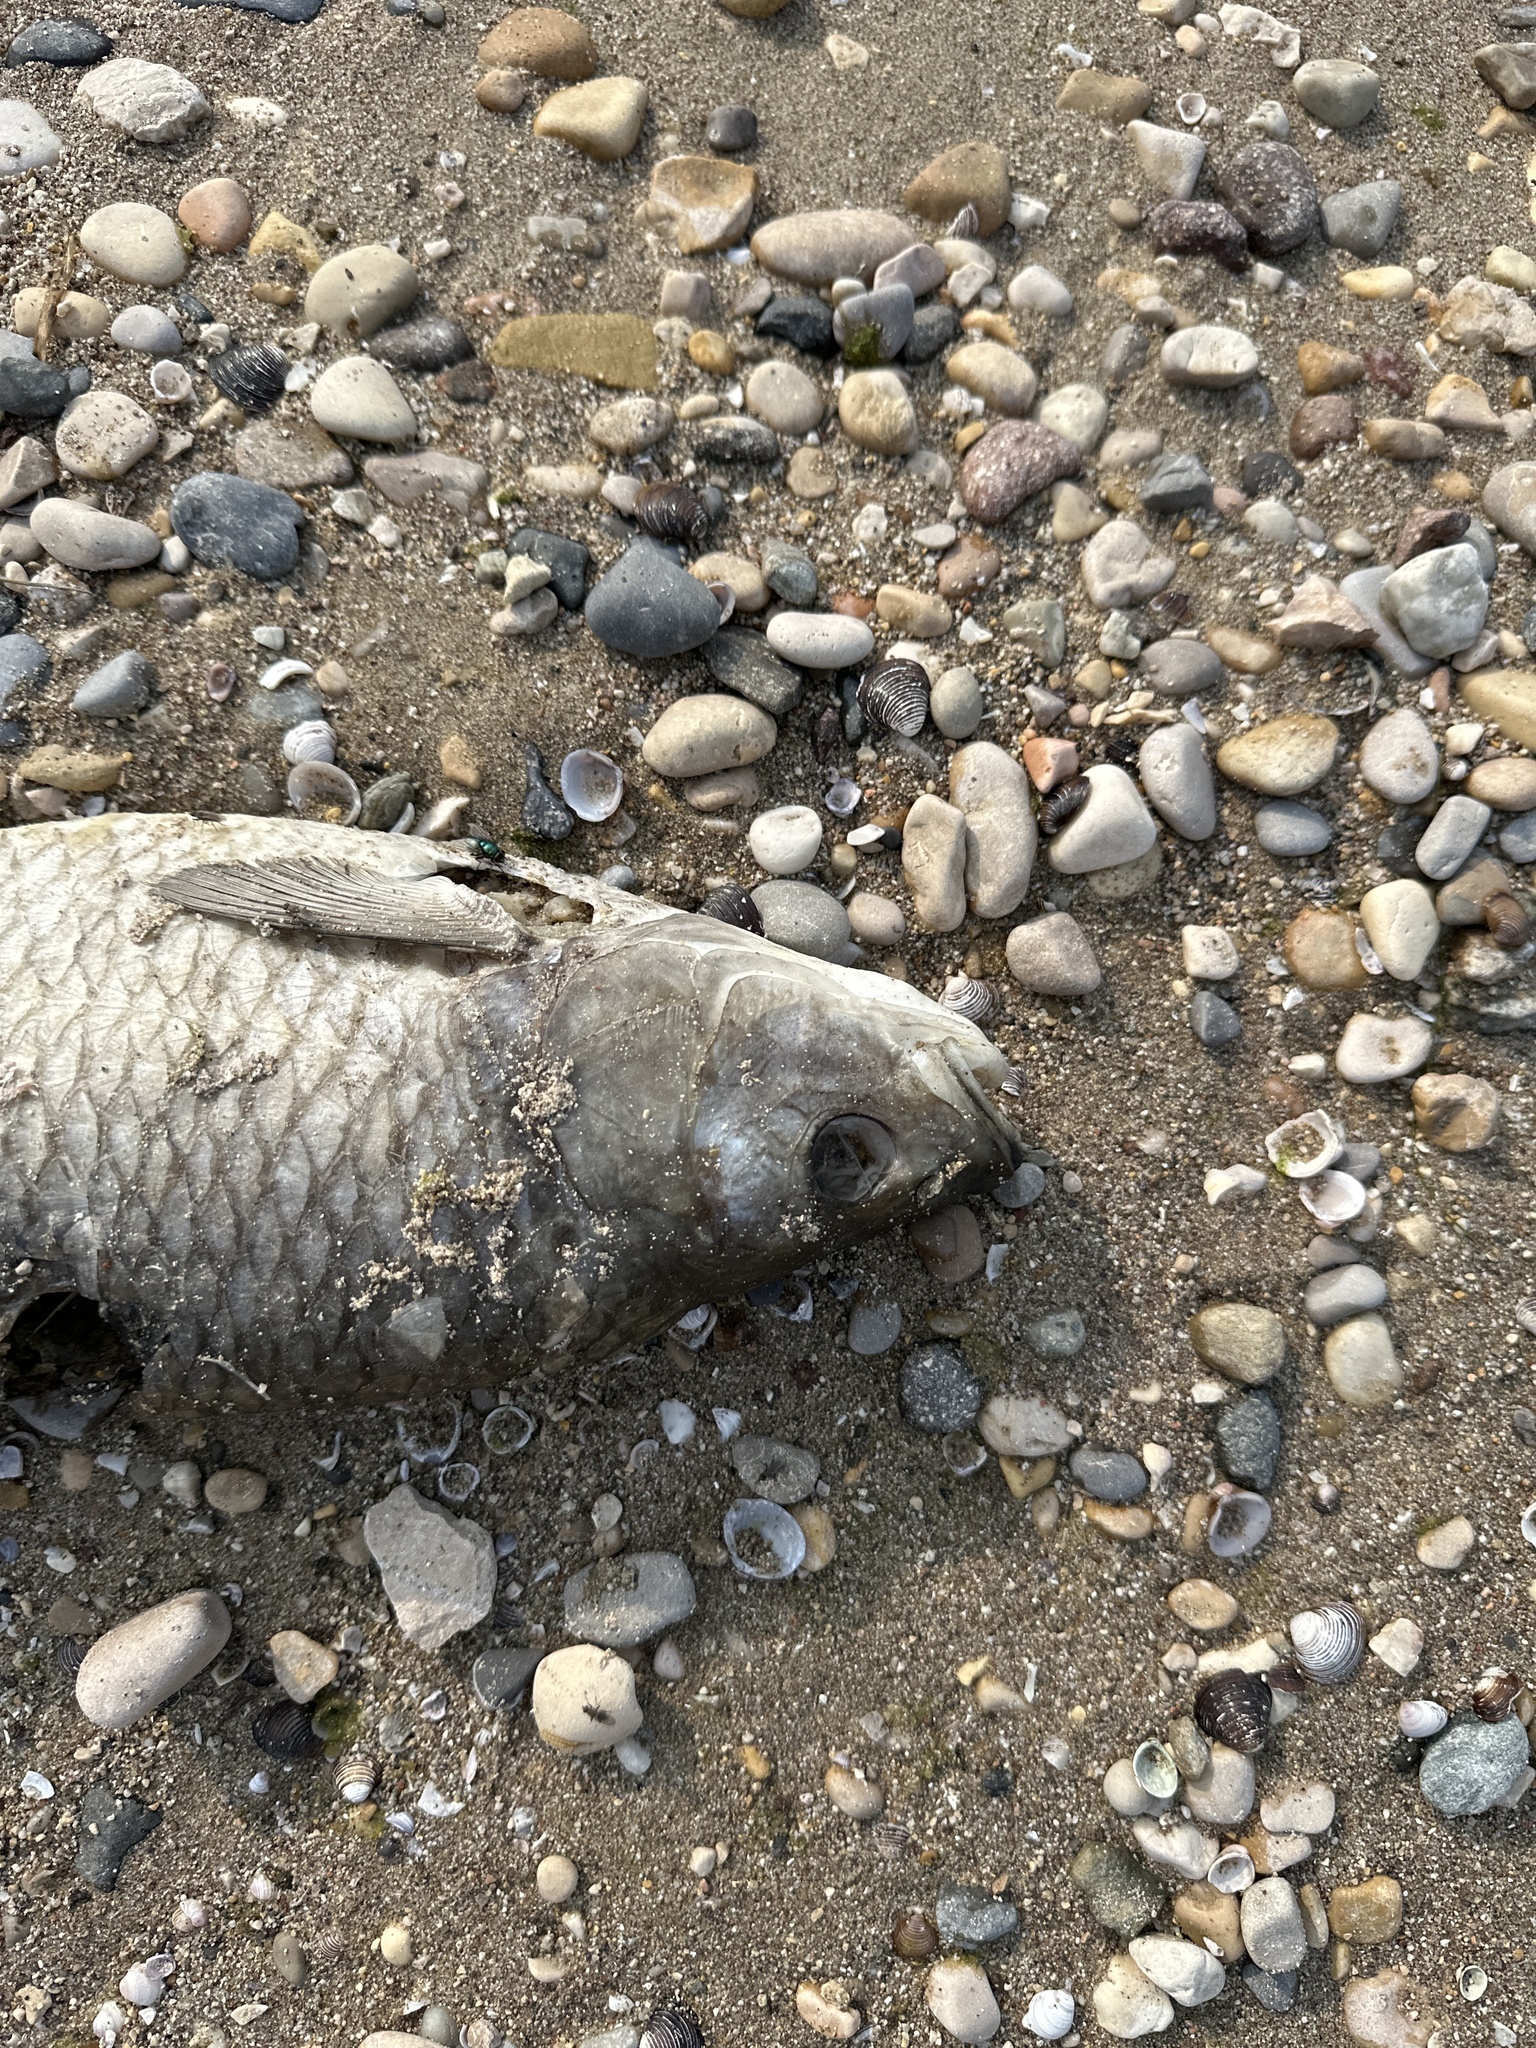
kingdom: Animalia
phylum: Chordata
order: Cypriniformes
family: Cyprinidae
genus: Squalius
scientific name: Squalius squalus
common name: Italian chub
